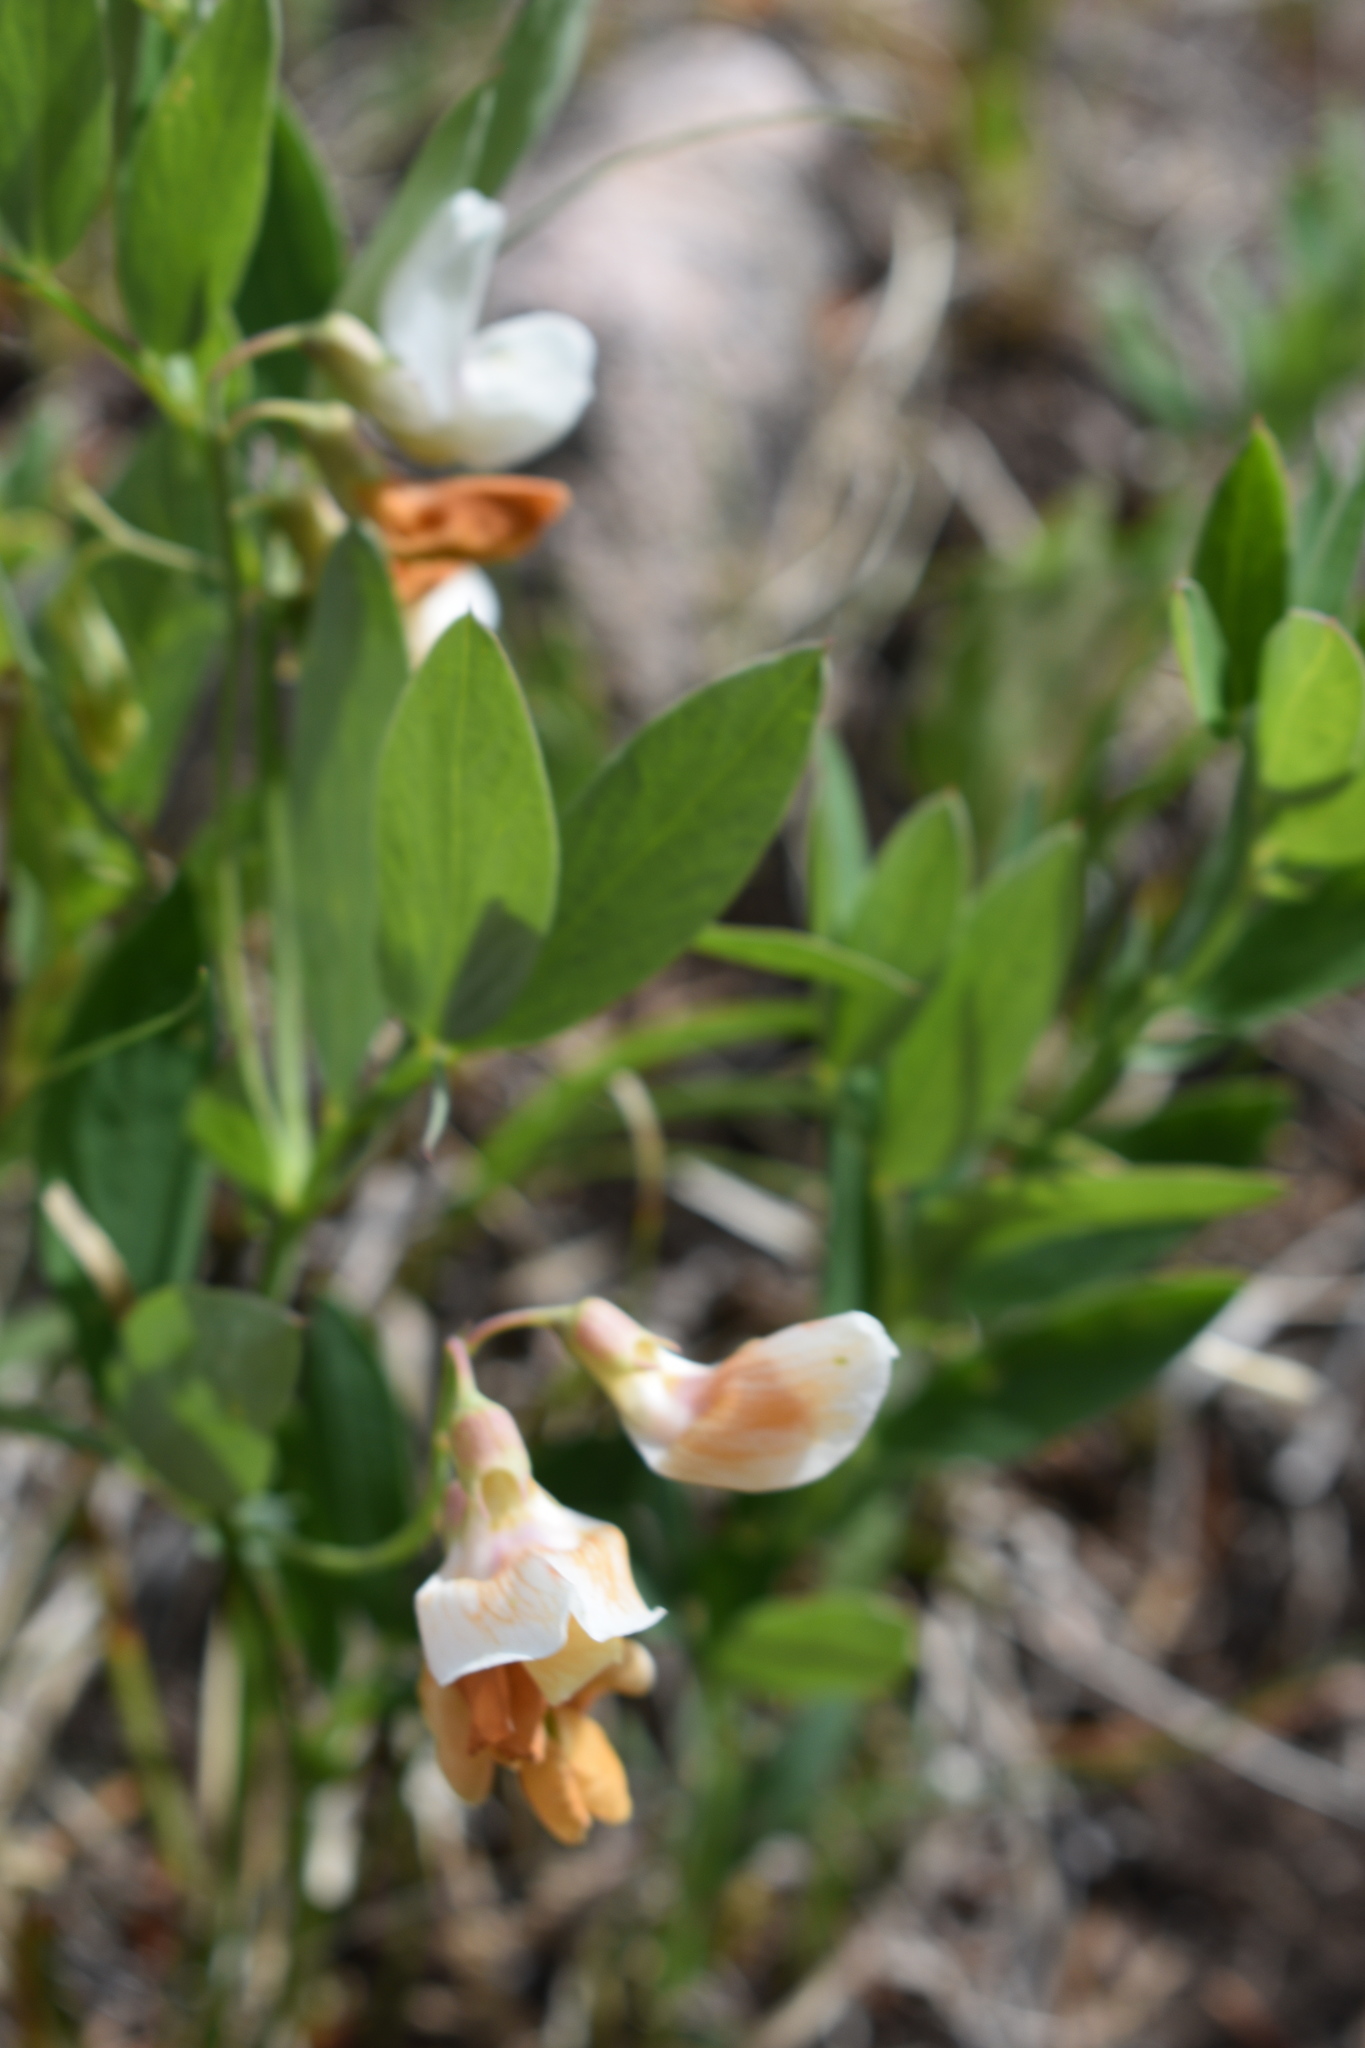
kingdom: Plantae
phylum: Tracheophyta
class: Magnoliopsida
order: Fabales
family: Fabaceae
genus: Lathyrus
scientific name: Lathyrus lanszwertii
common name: Lanszwert's vetchling
